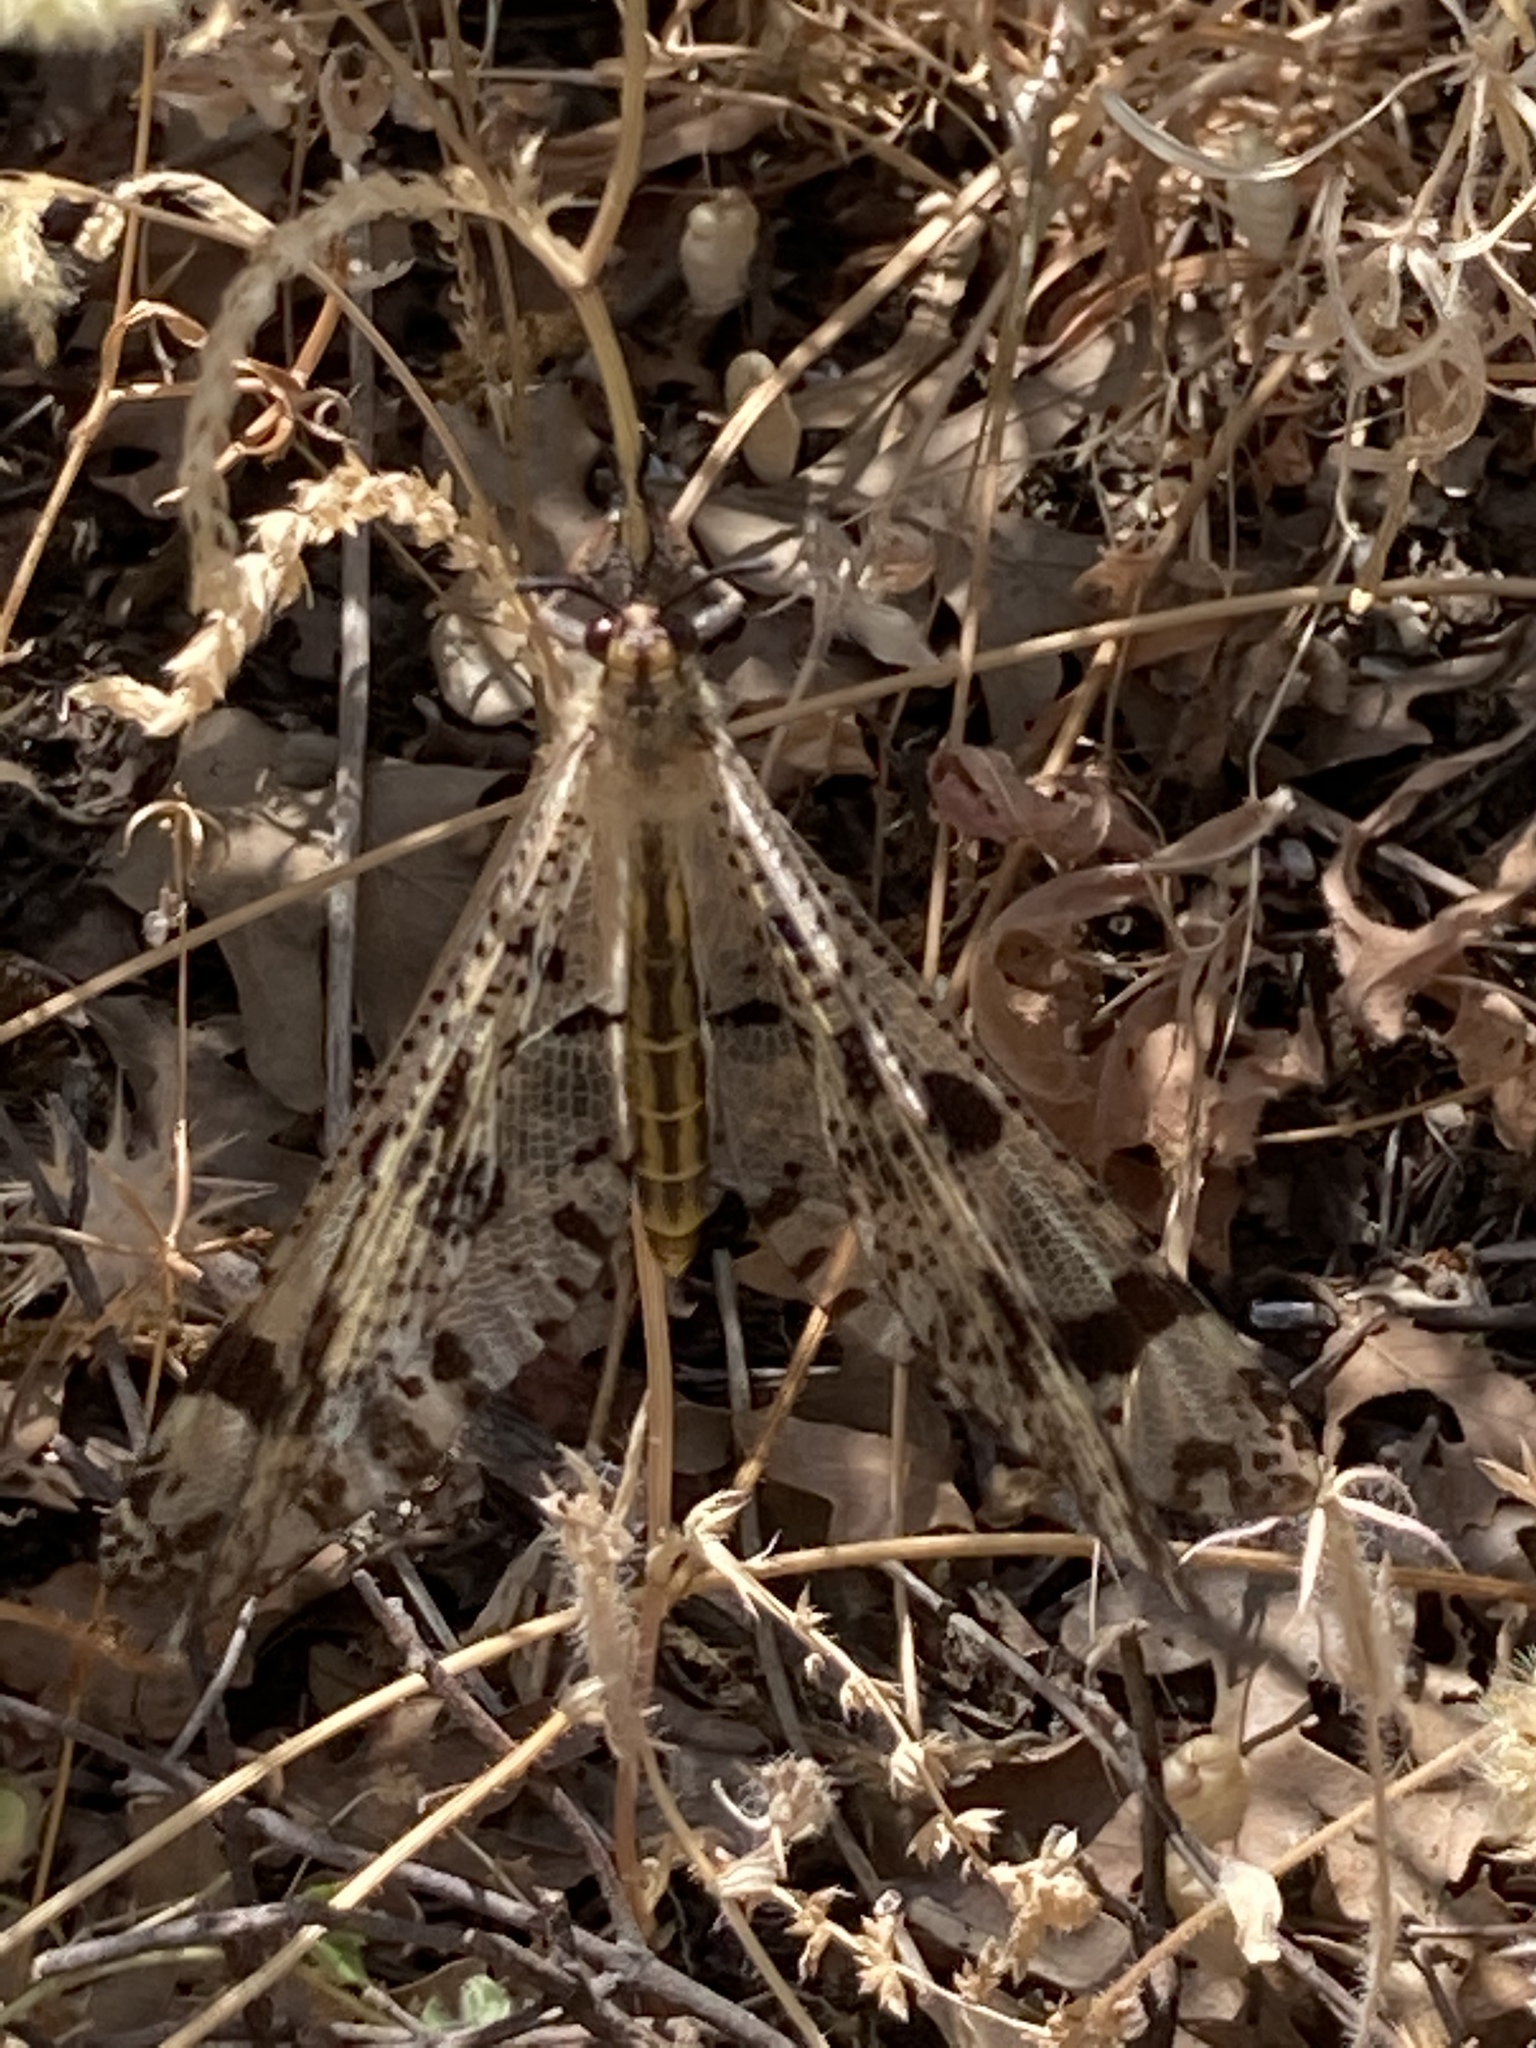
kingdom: Animalia
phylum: Arthropoda
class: Insecta
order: Neuroptera
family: Myrmeleontidae
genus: Palpares
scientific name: Palpares libelluloides
